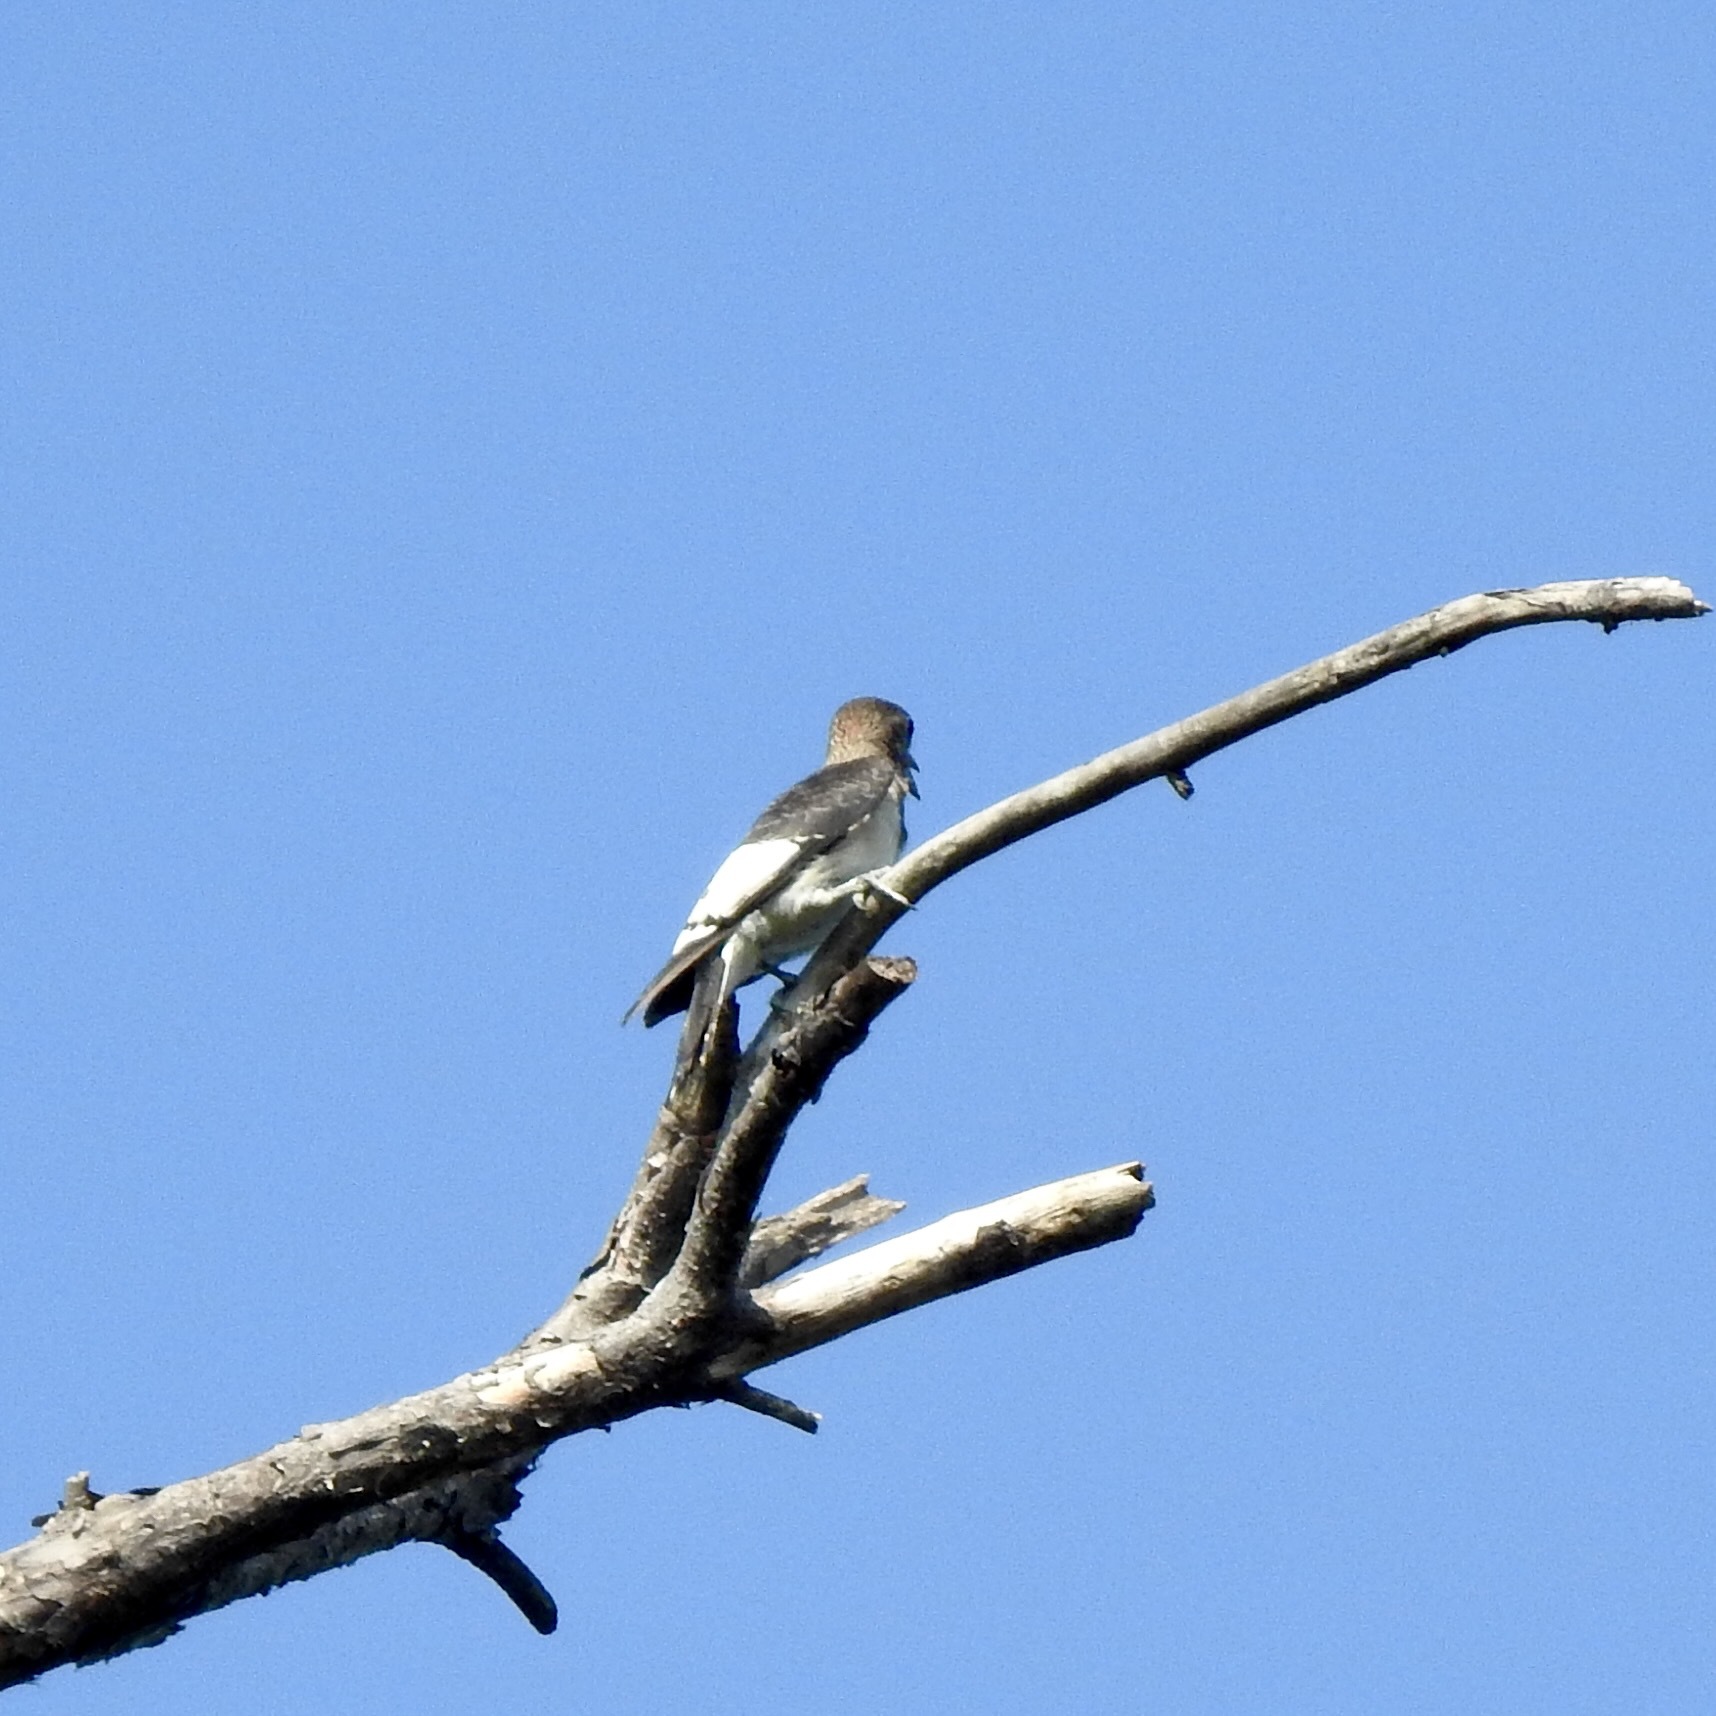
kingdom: Animalia
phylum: Chordata
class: Aves
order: Piciformes
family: Picidae
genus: Melanerpes
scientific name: Melanerpes erythrocephalus
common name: Red-headed woodpecker
